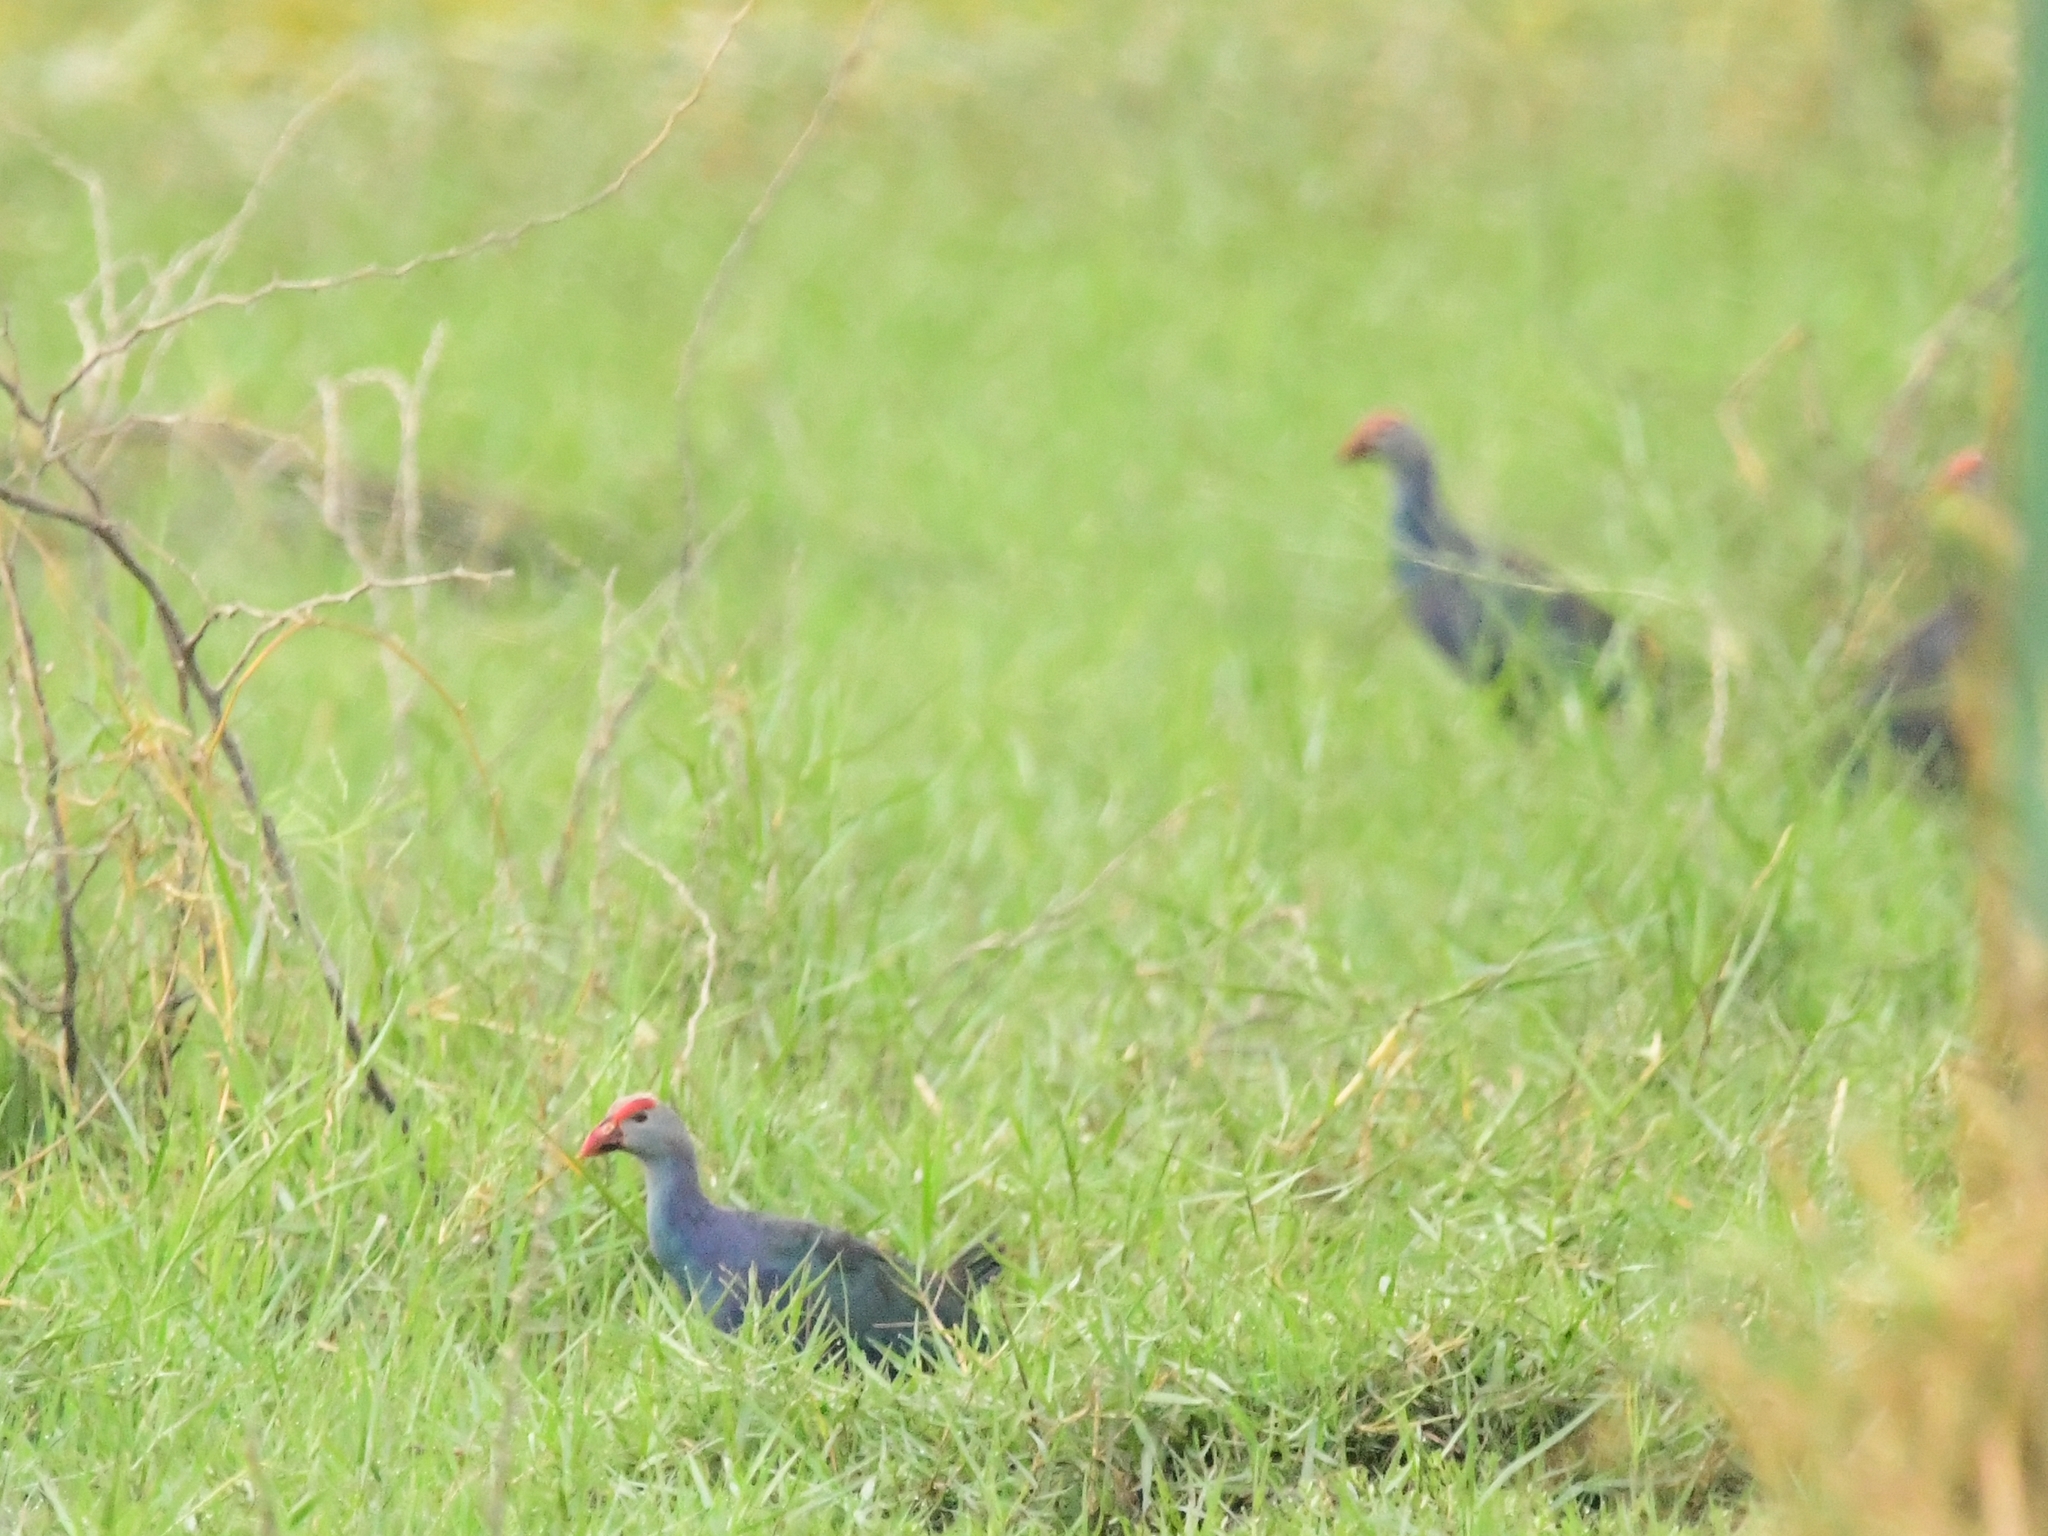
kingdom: Animalia
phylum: Chordata
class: Aves
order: Gruiformes
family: Rallidae
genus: Porphyrio
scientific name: Porphyrio porphyrio
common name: Purple swamphen
